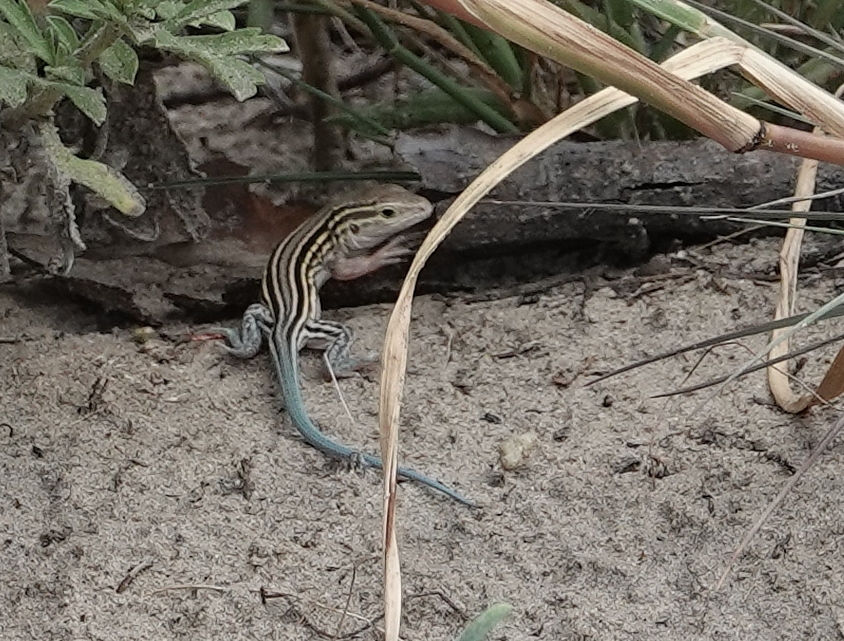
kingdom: Animalia
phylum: Chordata
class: Squamata
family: Teiidae
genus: Aspidoscelis
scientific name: Aspidoscelis sexlineatus
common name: Six-lined racerunner
